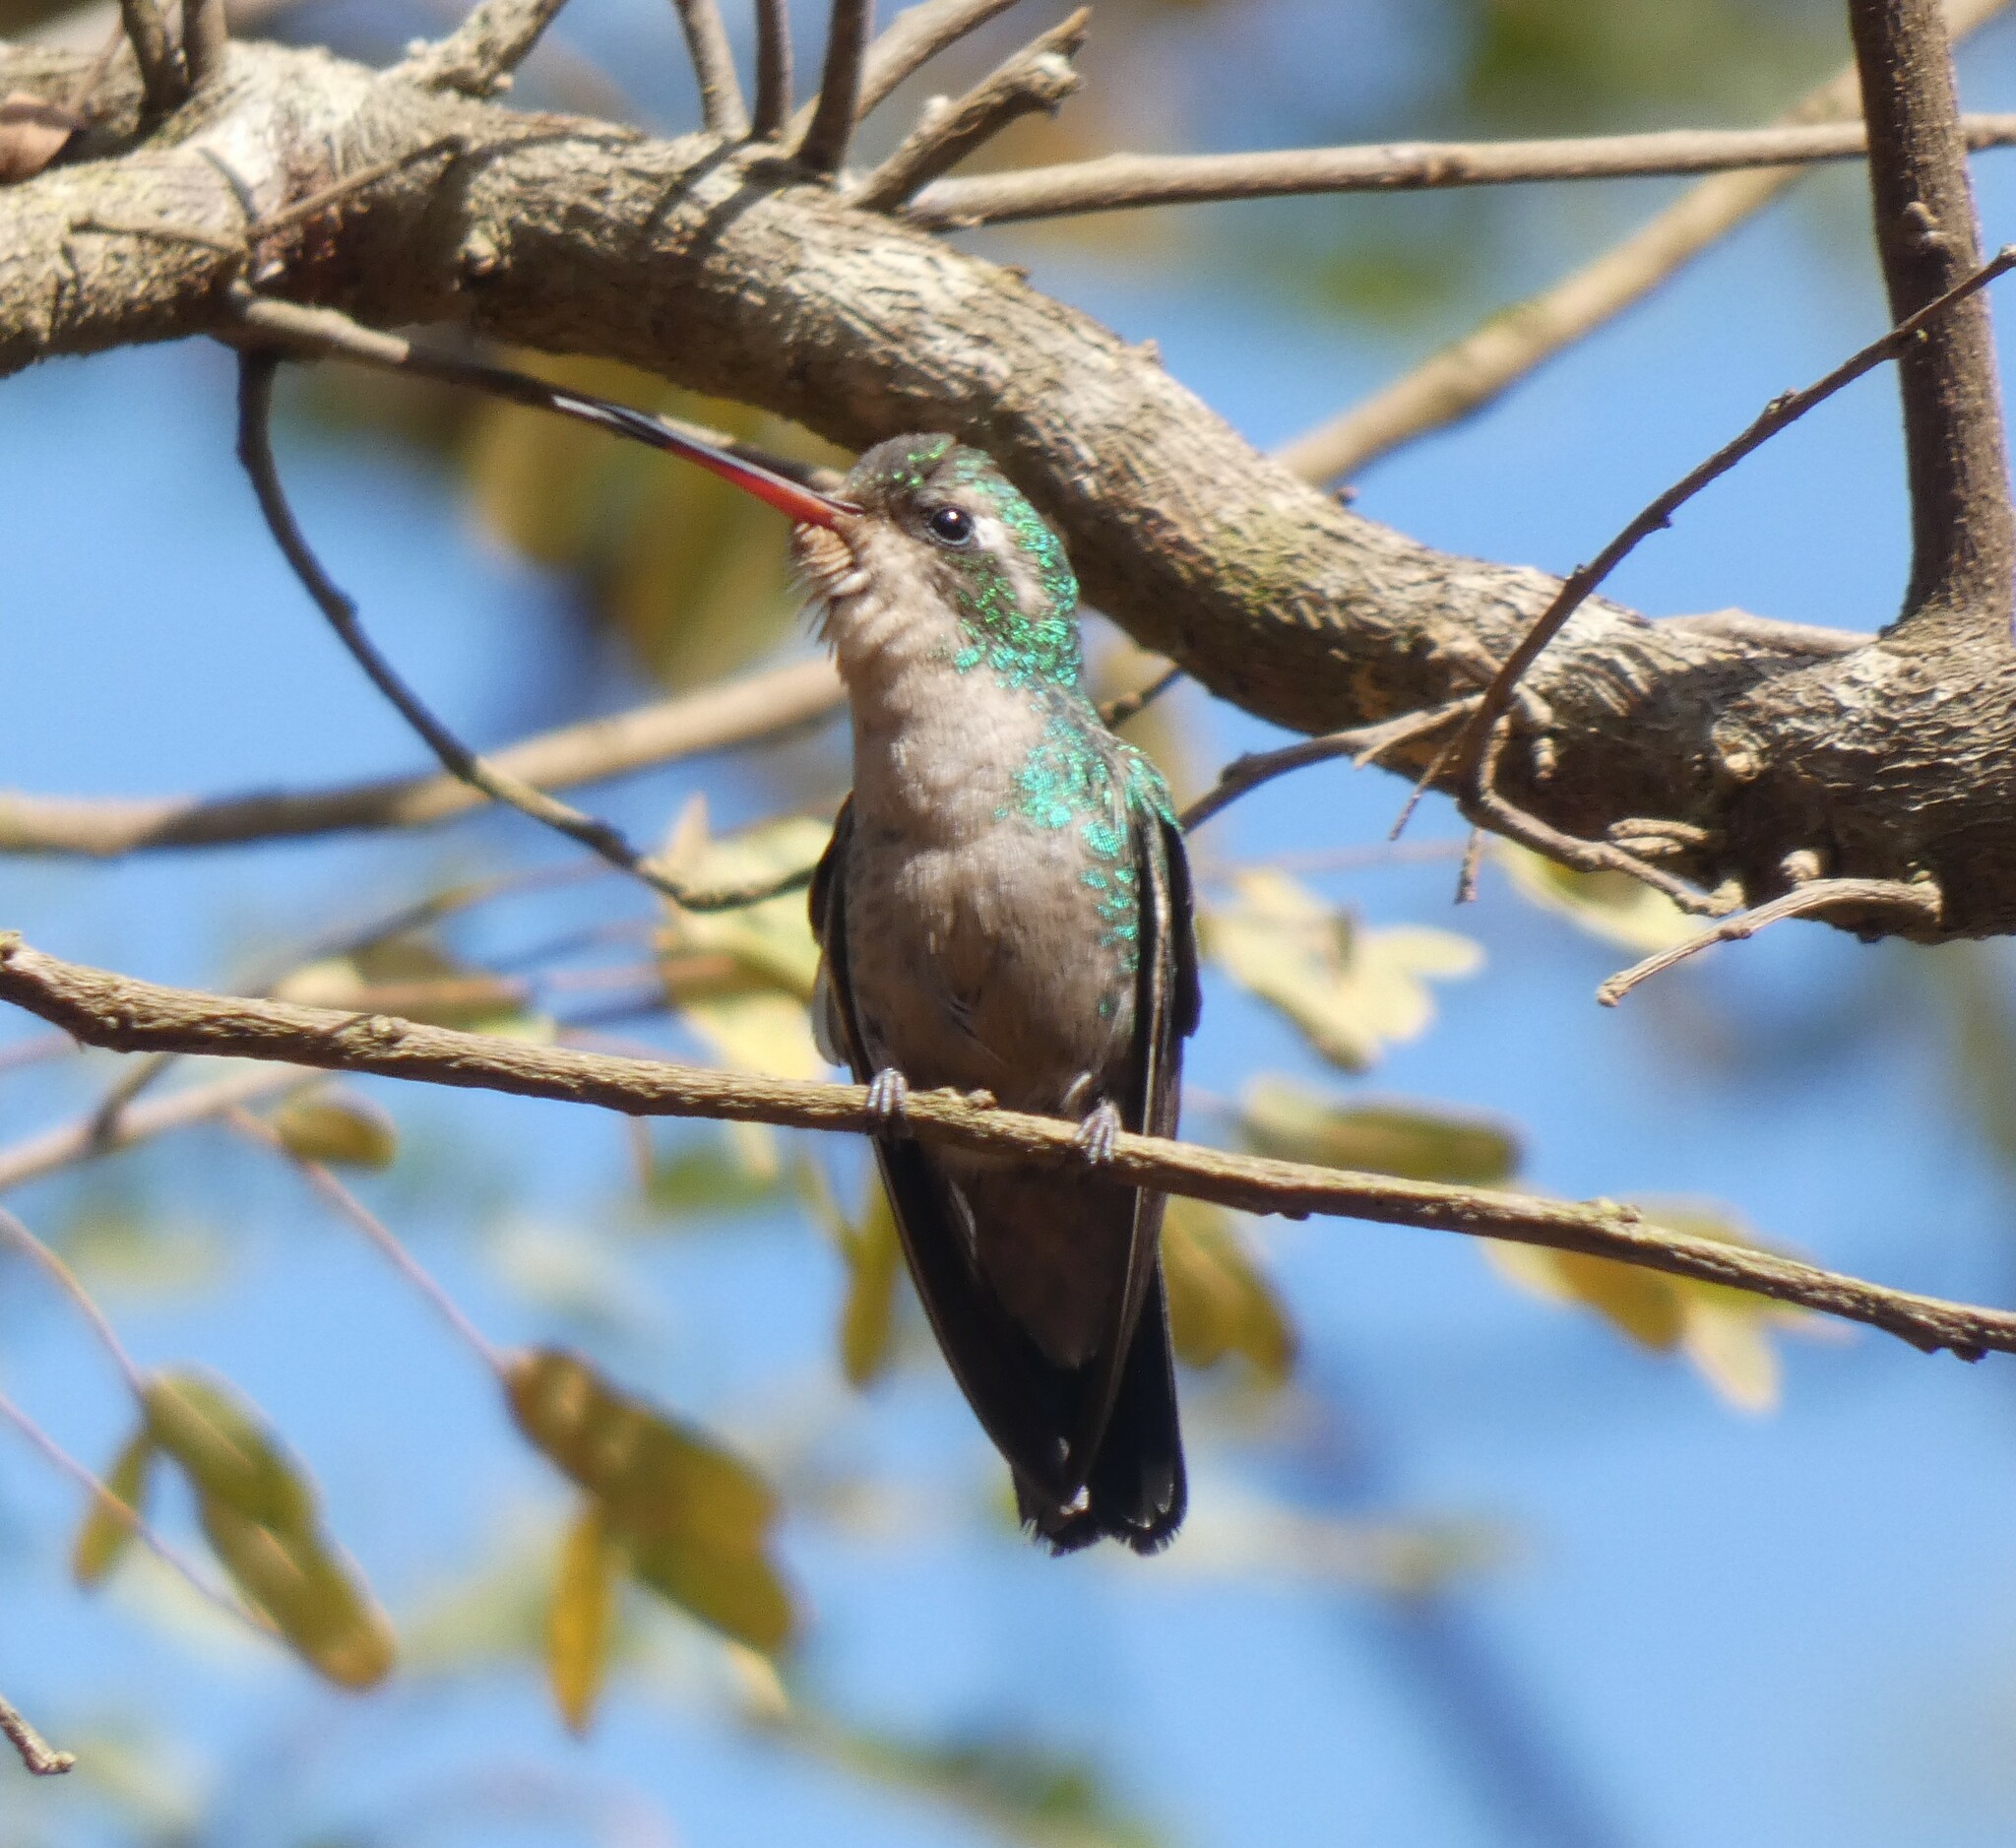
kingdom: Animalia
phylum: Chordata
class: Aves
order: Apodiformes
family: Trochilidae
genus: Chlorostilbon
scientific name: Chlorostilbon lucidus
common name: Glittering-bellied emerald
